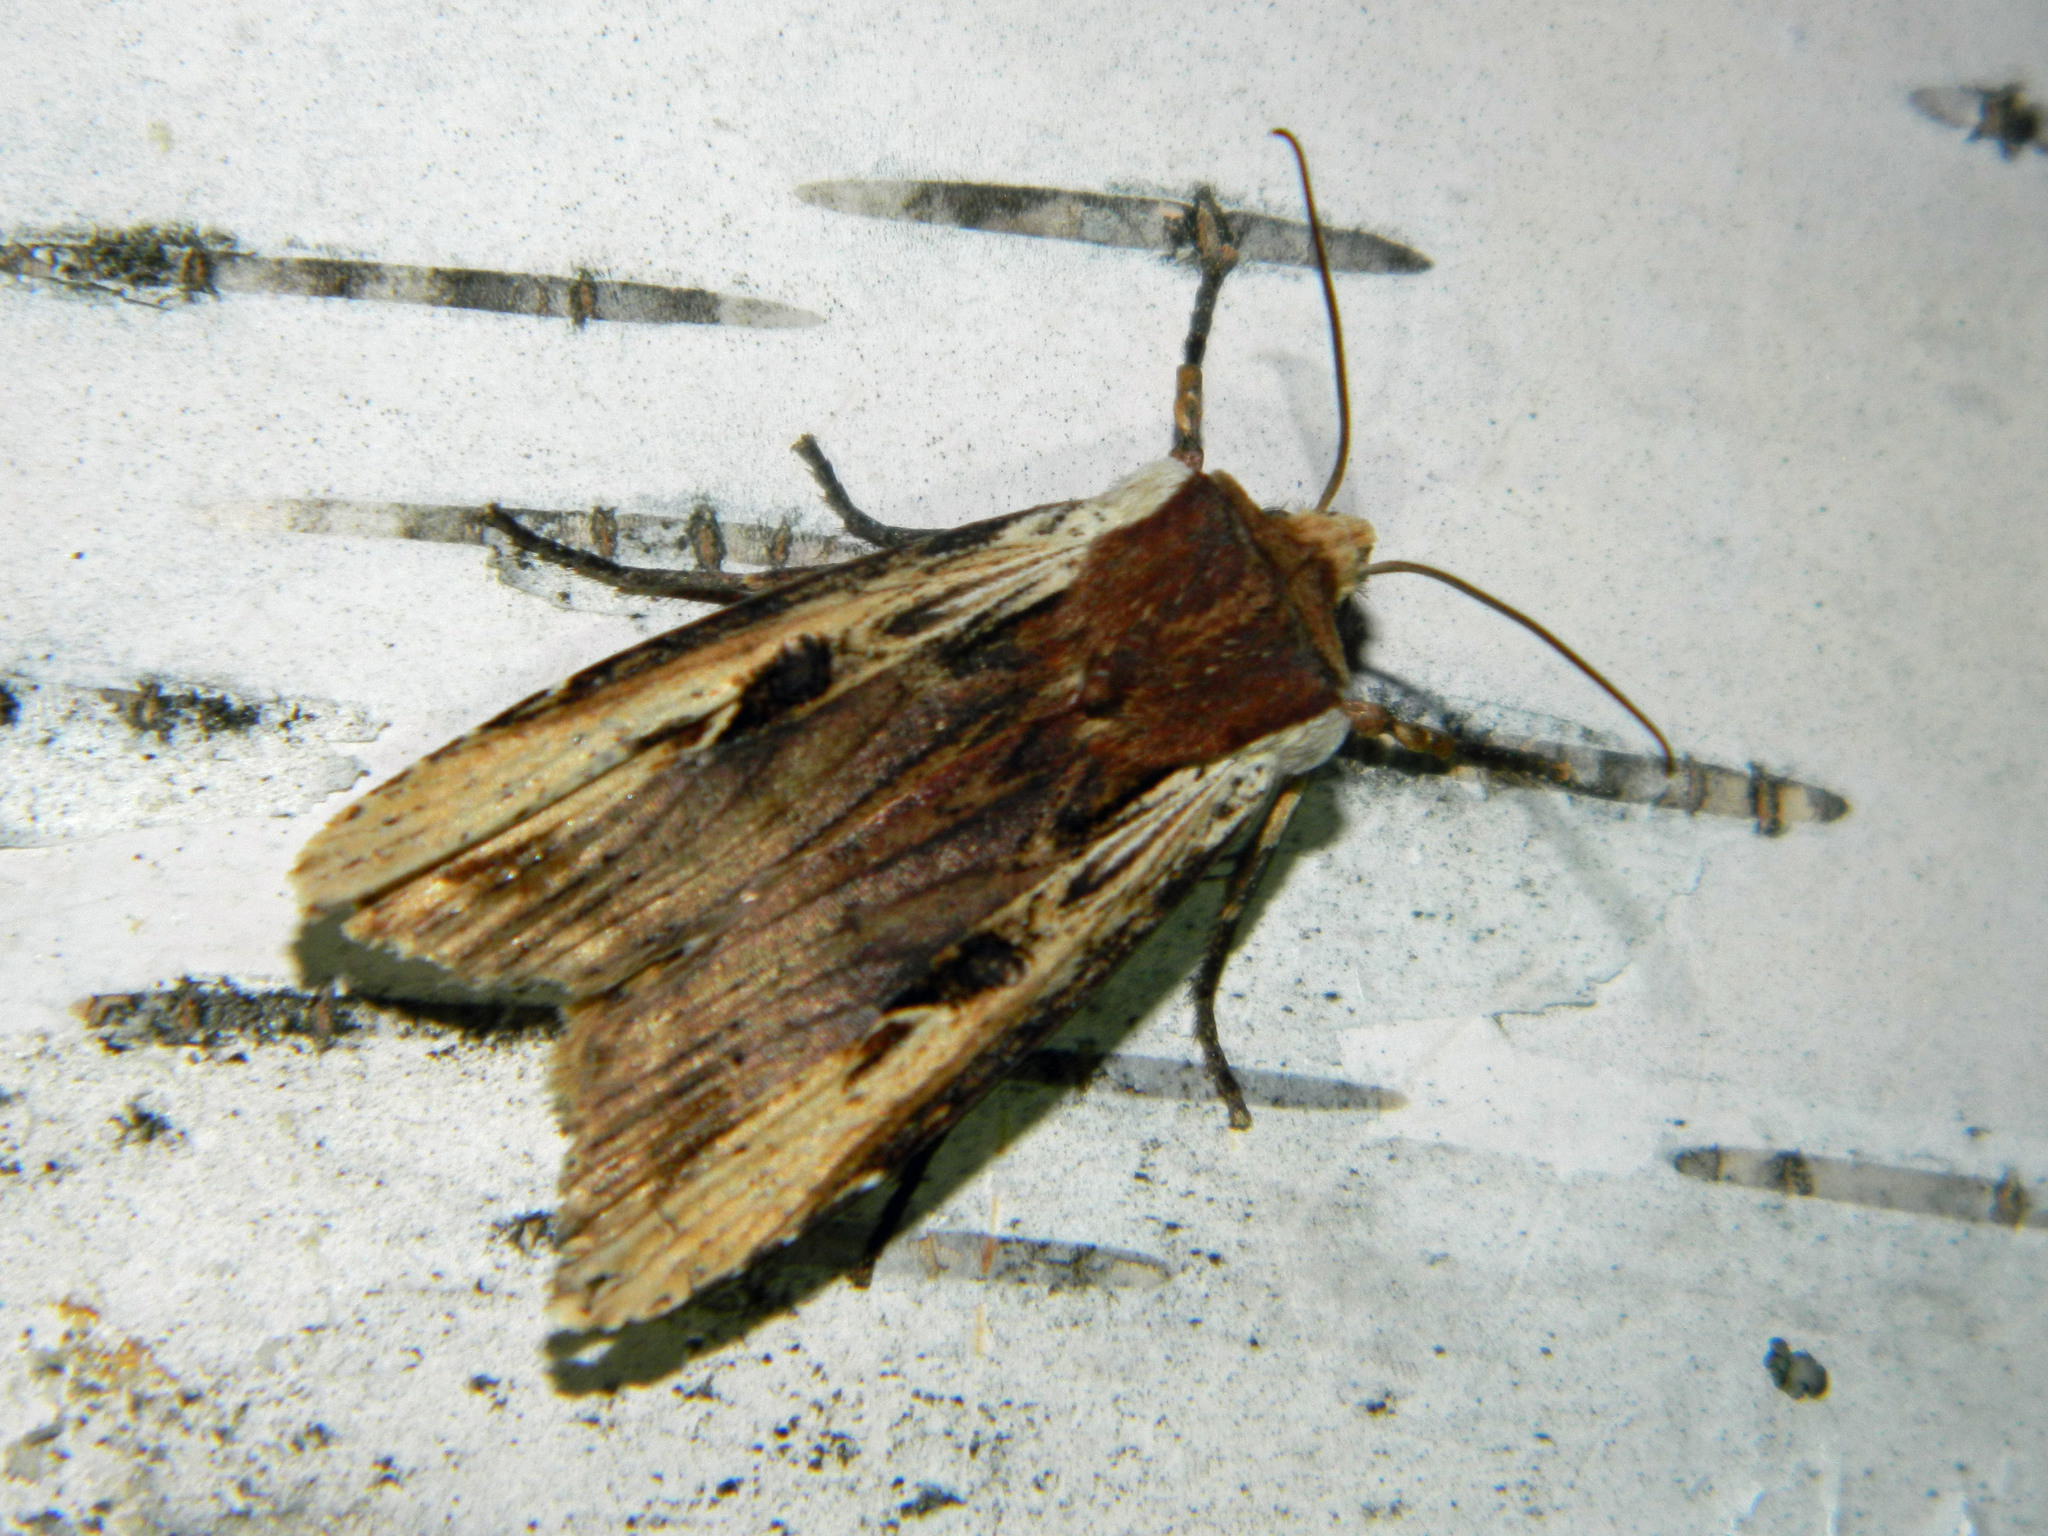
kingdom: Animalia
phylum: Arthropoda
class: Insecta
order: Lepidoptera
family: Noctuidae
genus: Xylena
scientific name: Xylena curvimacula
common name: Dot-and-dash swordgrass moth
